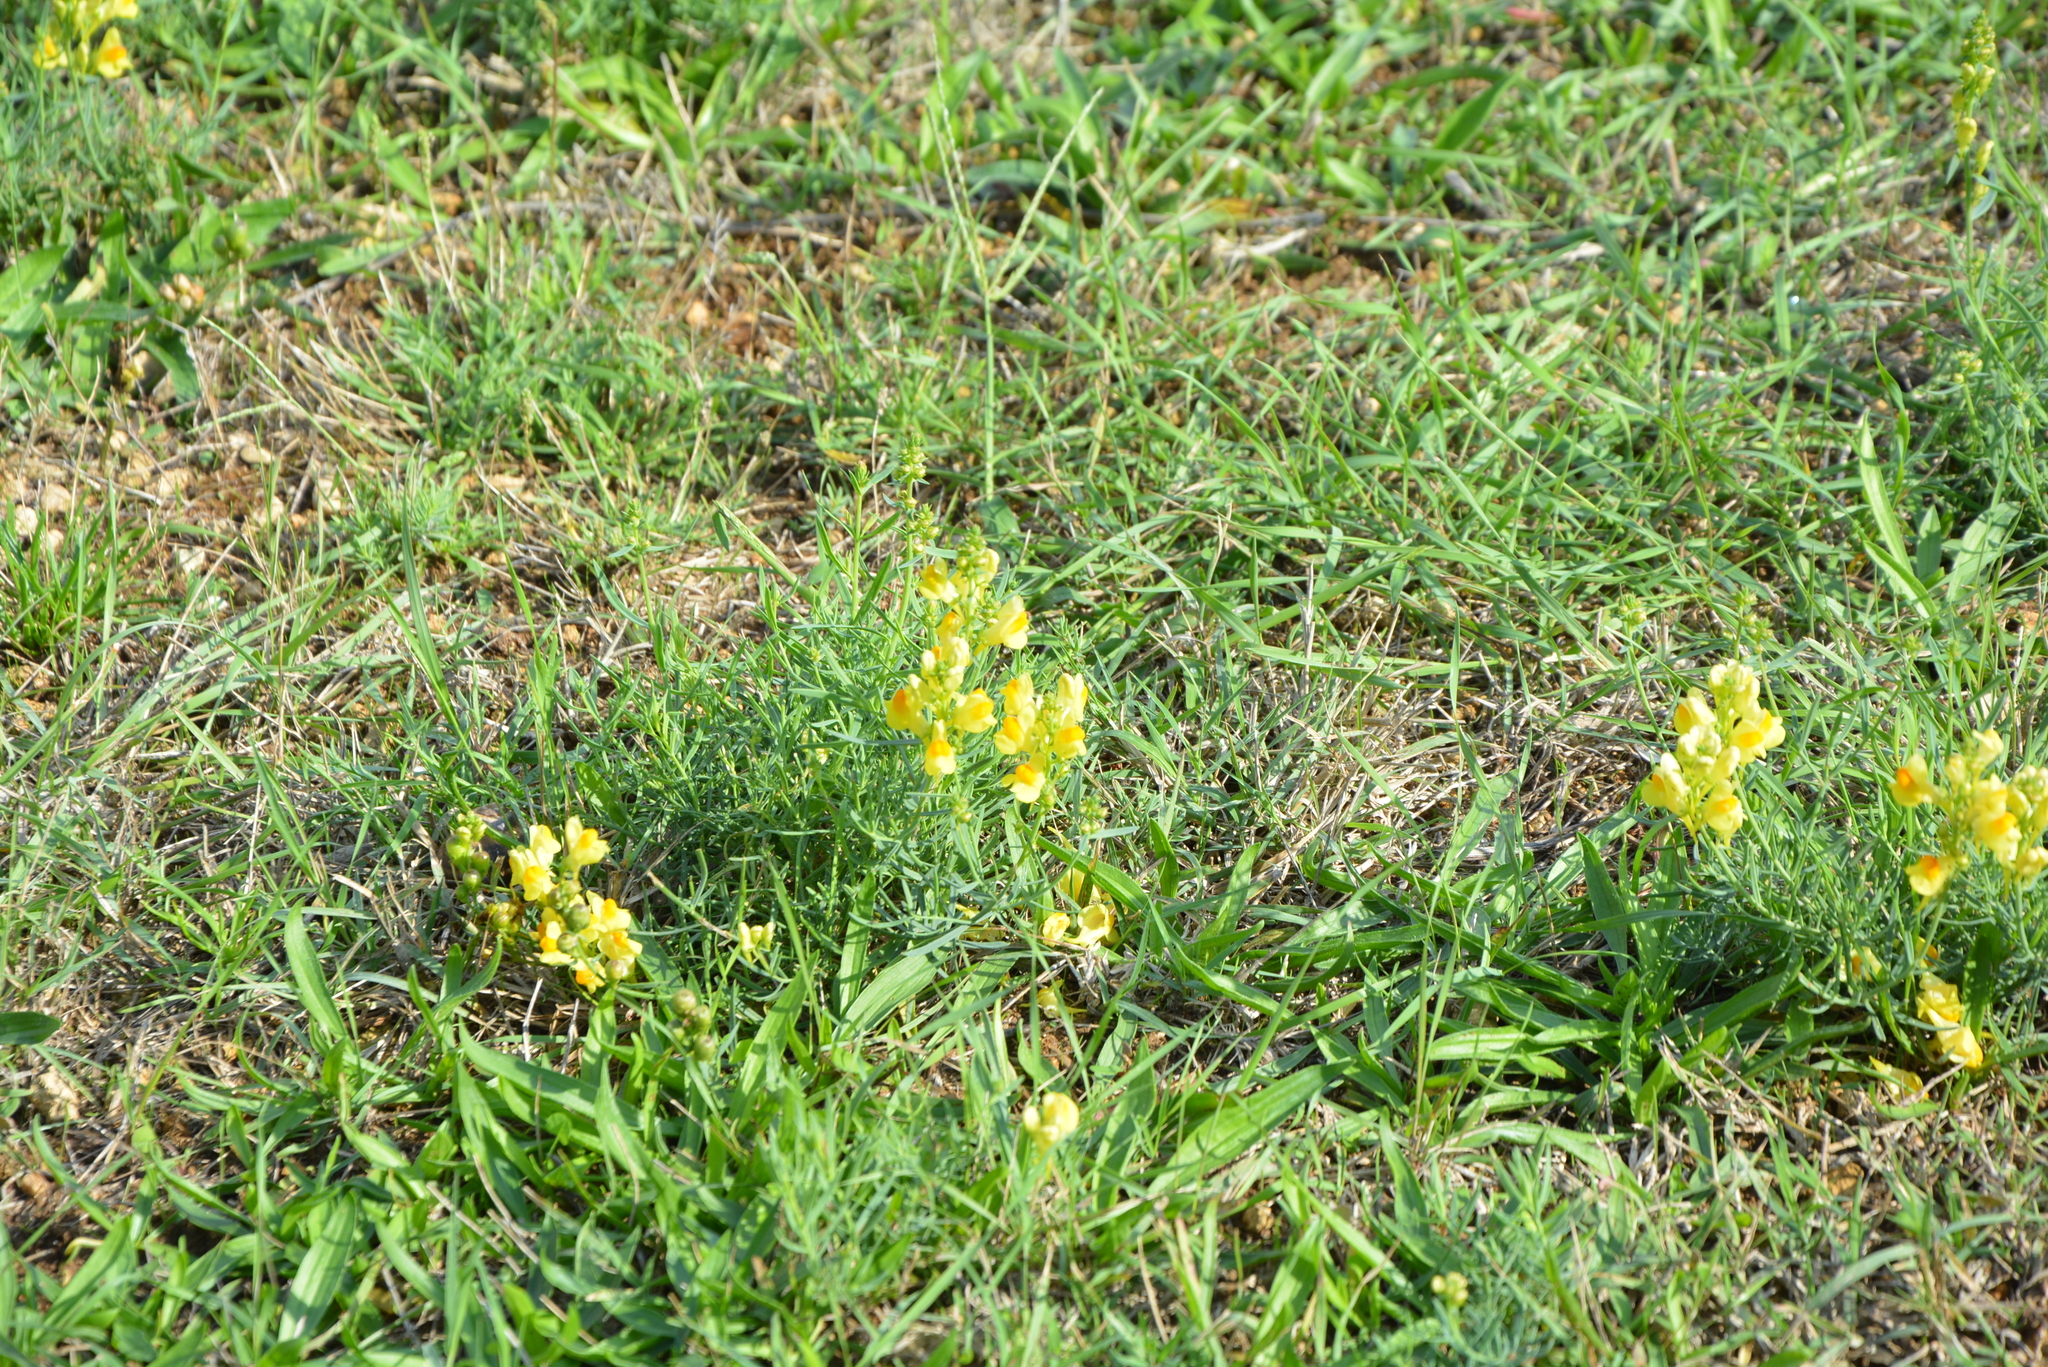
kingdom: Plantae
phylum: Tracheophyta
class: Magnoliopsida
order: Lamiales
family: Plantaginaceae
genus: Linaria
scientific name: Linaria vulgaris
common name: Butter and eggs
